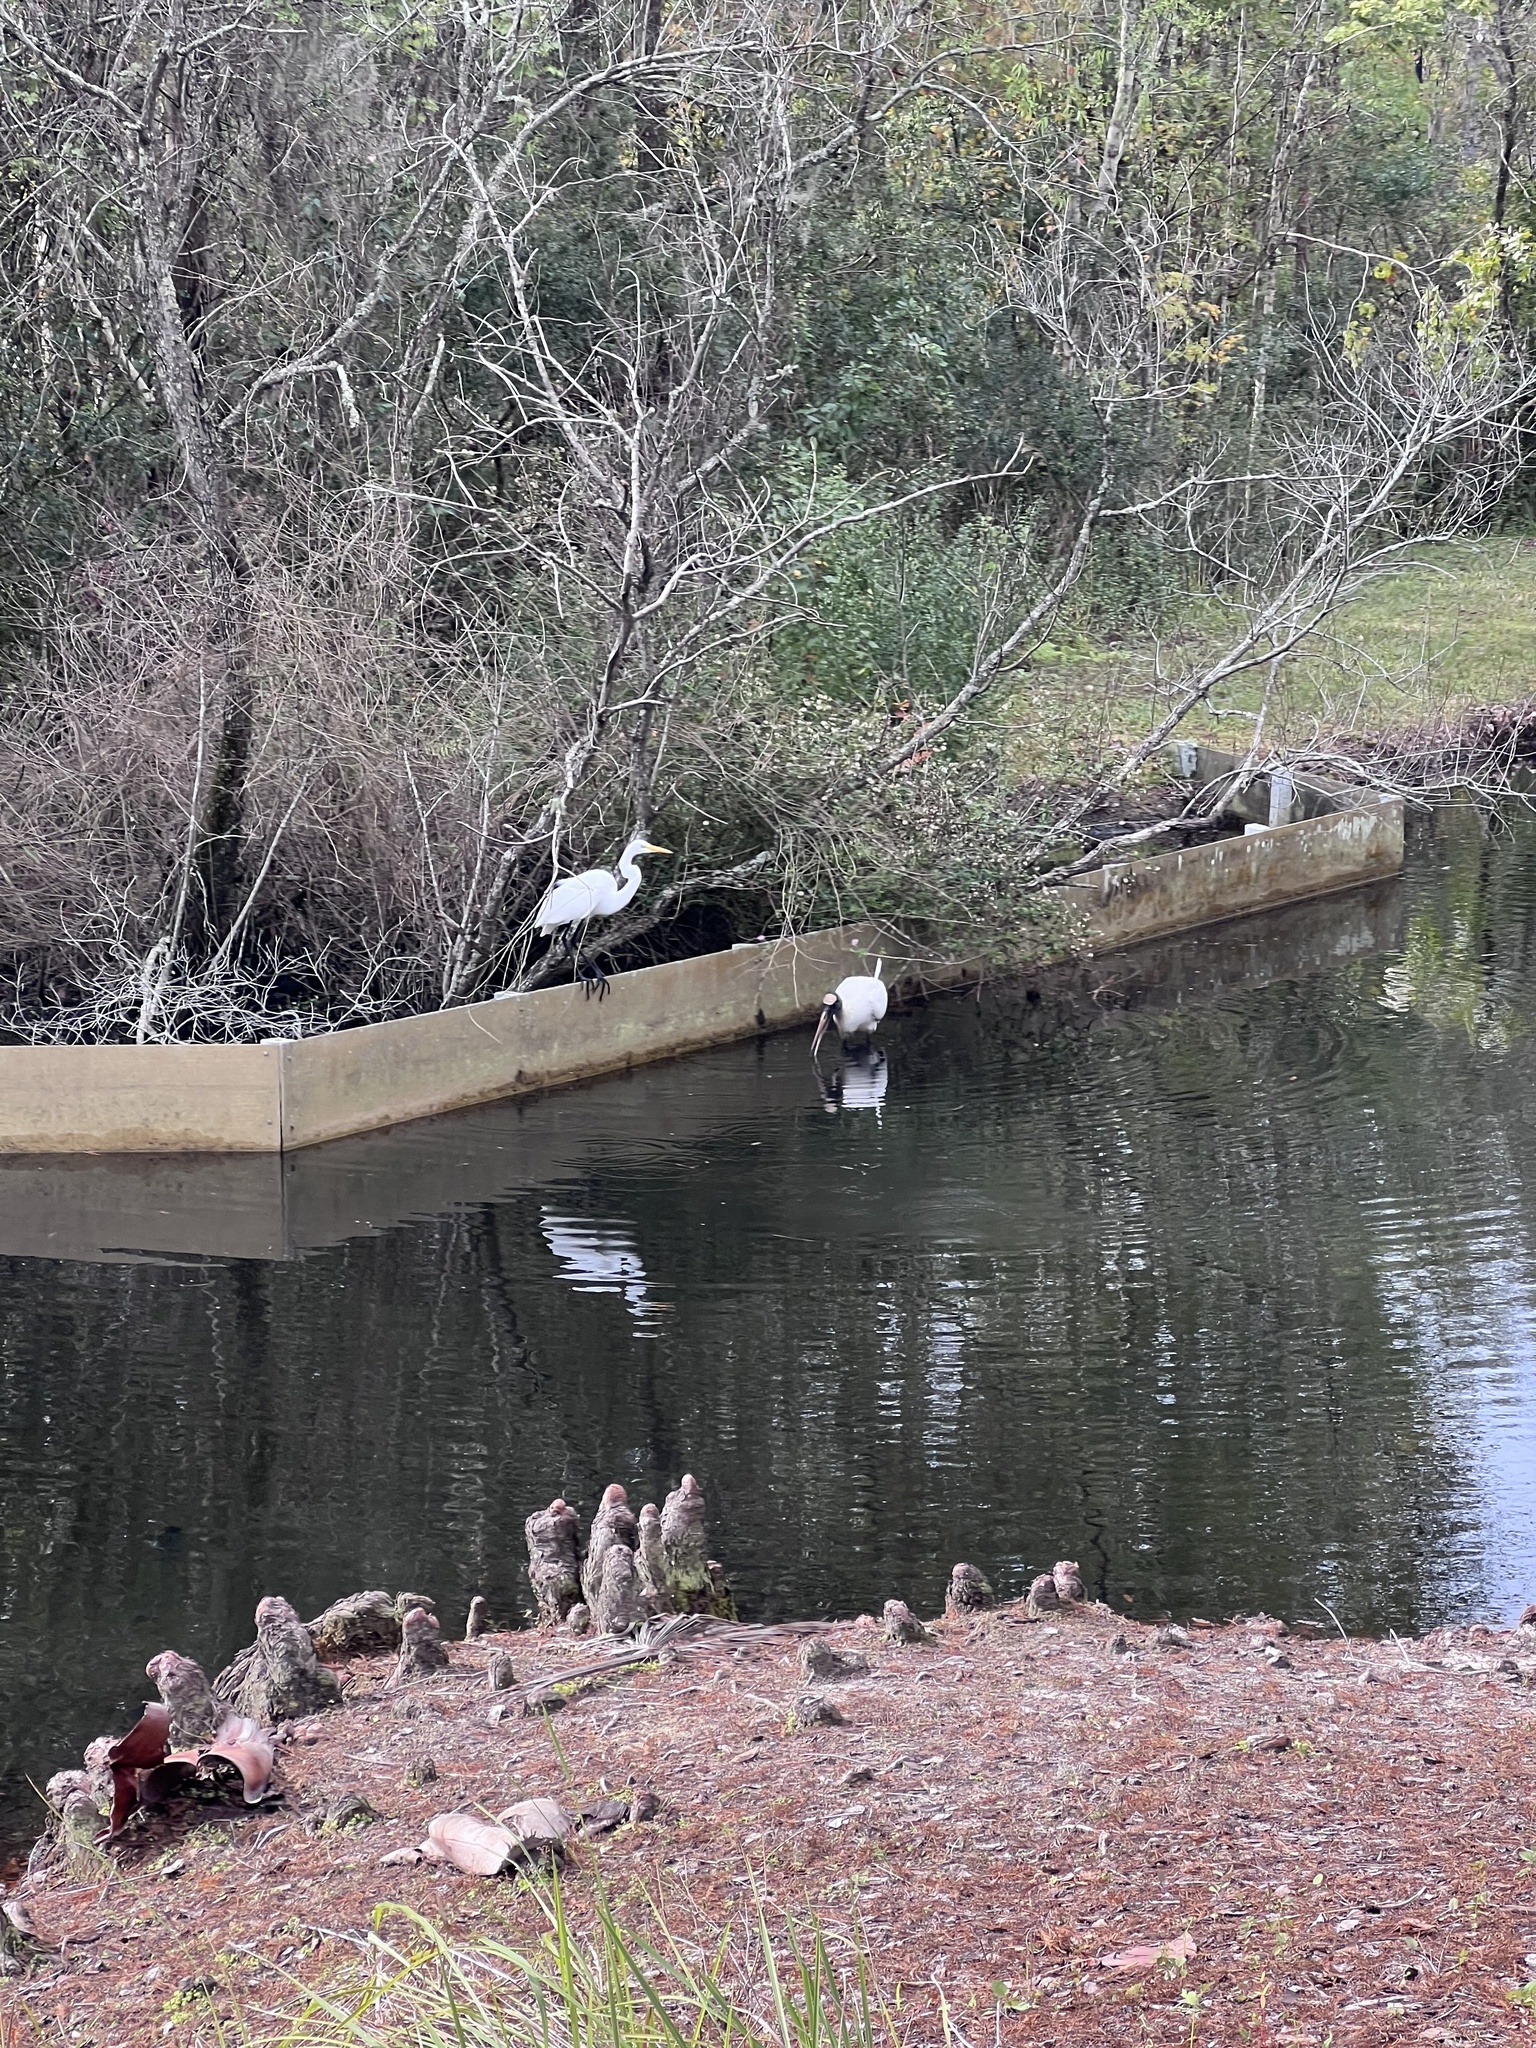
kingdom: Animalia
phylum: Chordata
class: Aves
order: Ciconiiformes
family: Ciconiidae
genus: Mycteria
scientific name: Mycteria americana
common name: Wood stork
